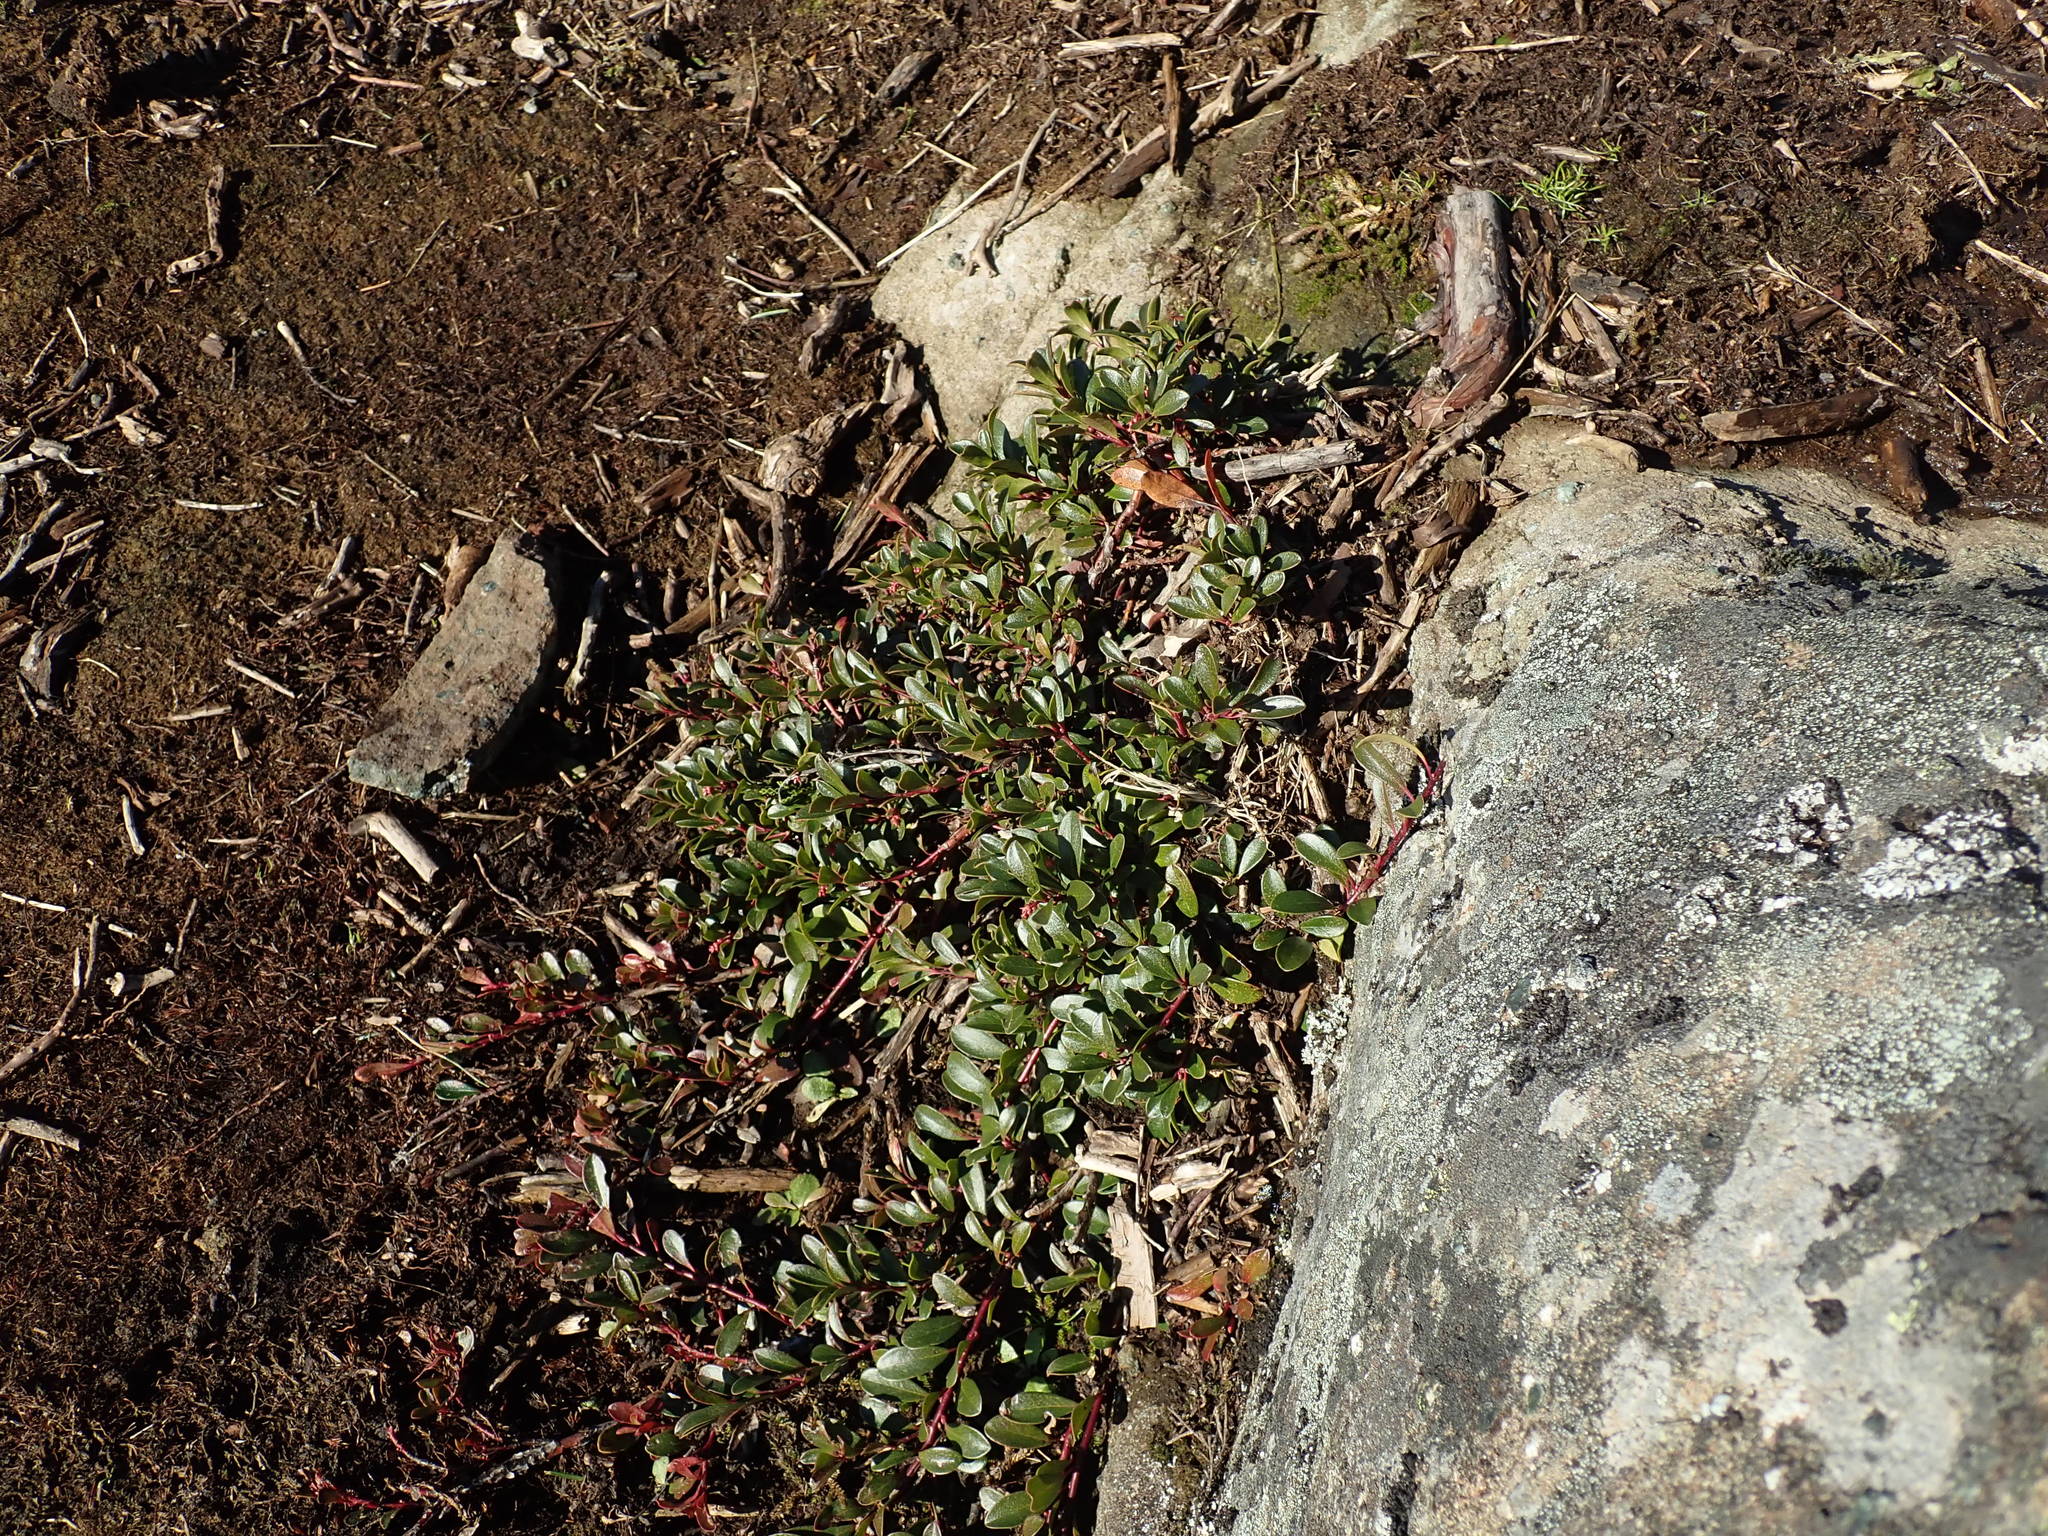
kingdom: Plantae
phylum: Tracheophyta
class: Magnoliopsida
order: Ericales
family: Ericaceae
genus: Arctostaphylos
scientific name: Arctostaphylos uva-ursi
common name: Bearberry
